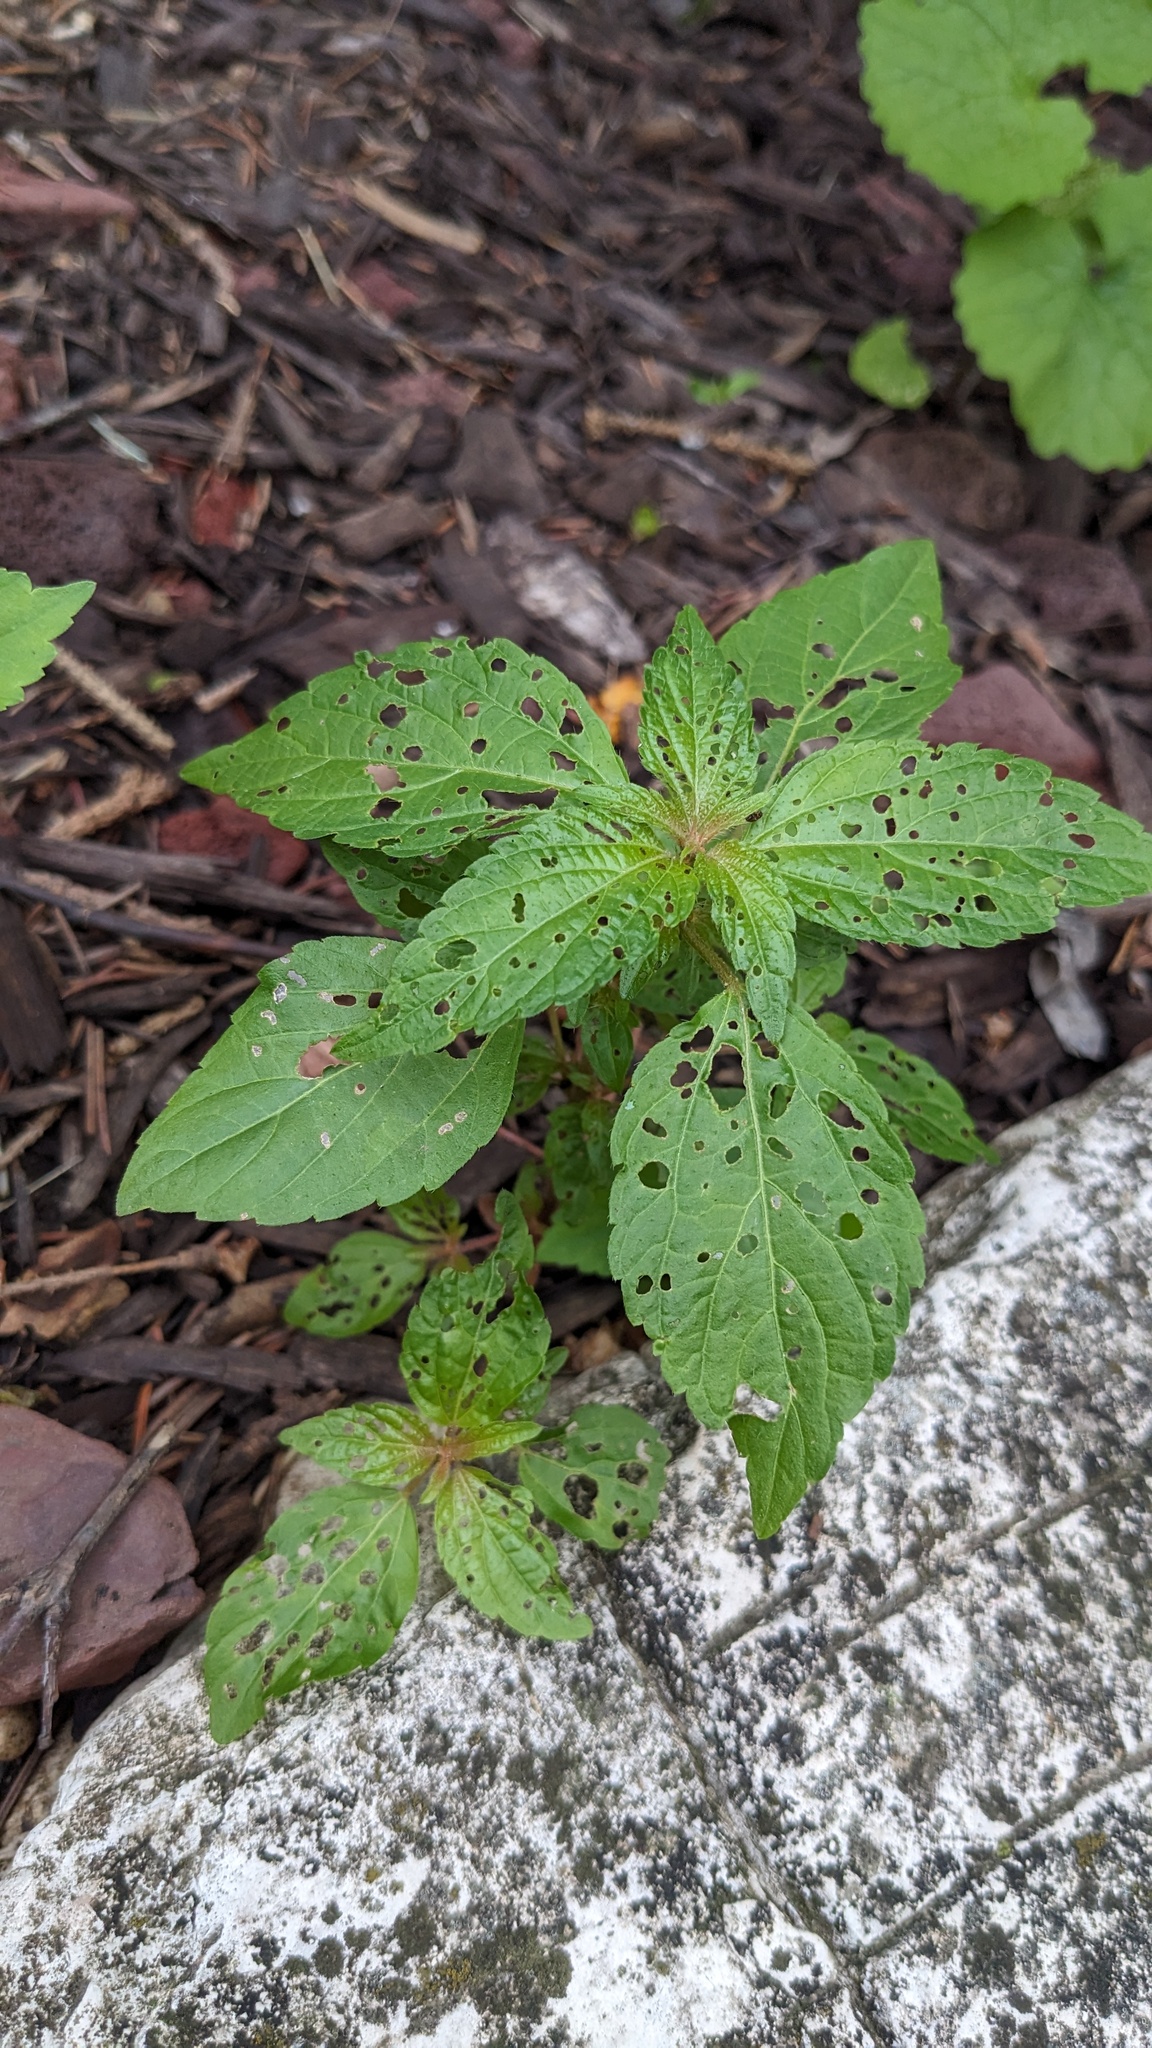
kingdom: Plantae
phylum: Tracheophyta
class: Magnoliopsida
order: Malpighiales
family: Euphorbiaceae
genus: Acalypha
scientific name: Acalypha rhomboidea
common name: Rhombic copperleaf
